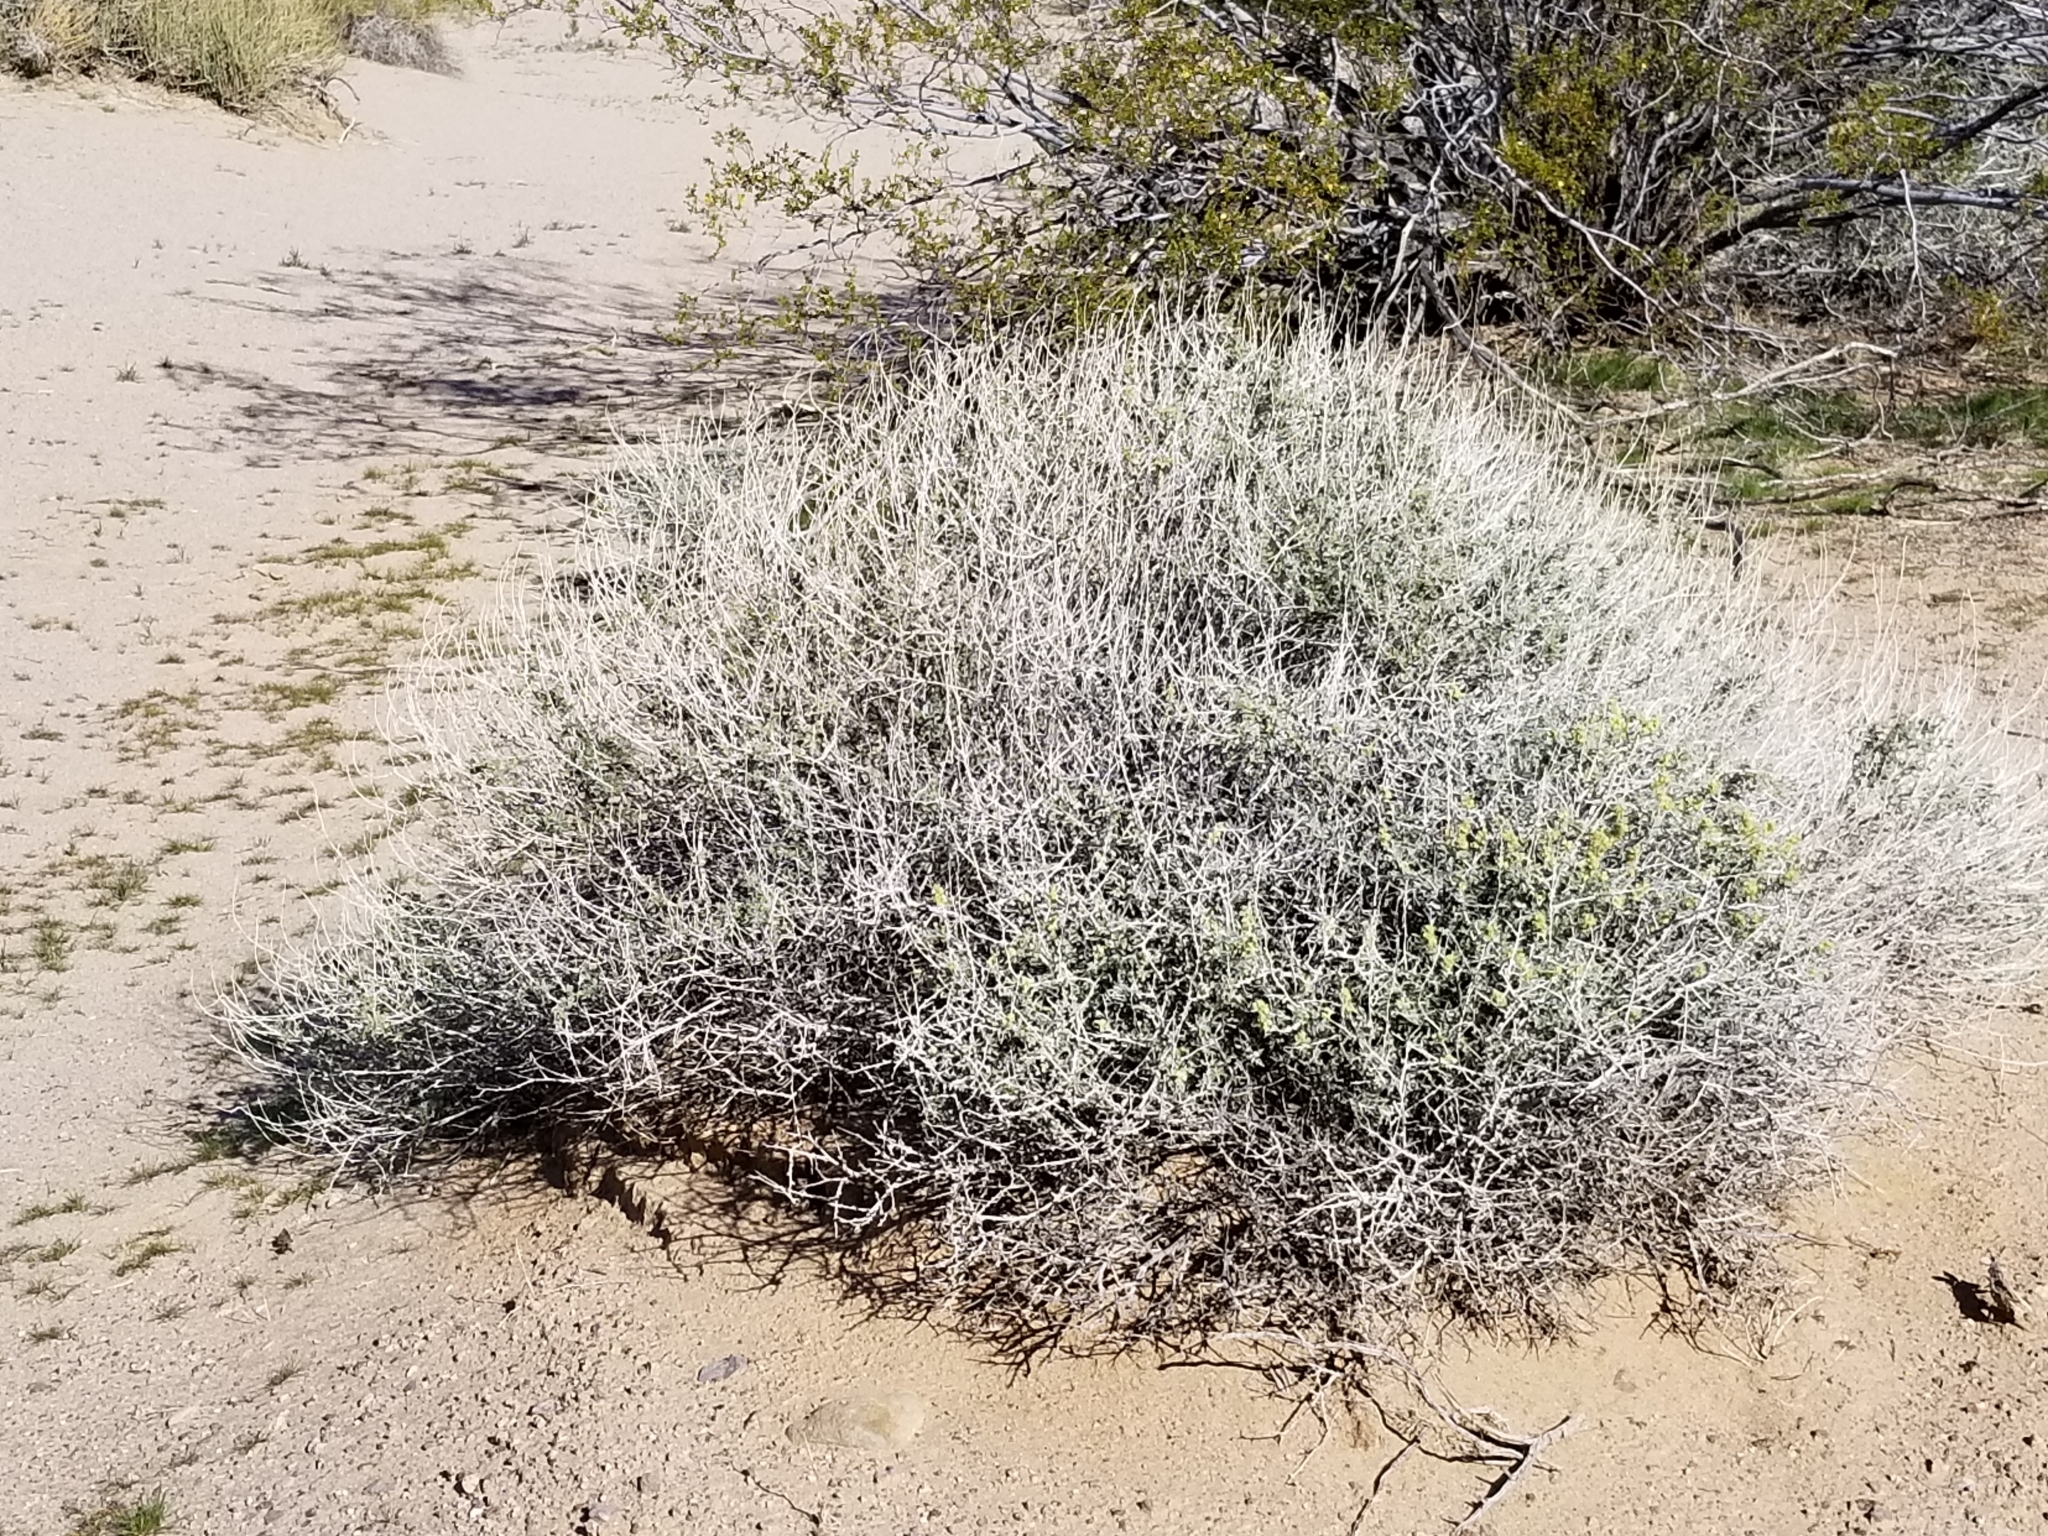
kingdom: Plantae
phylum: Tracheophyta
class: Magnoliopsida
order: Asterales
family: Asteraceae
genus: Ambrosia
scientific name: Ambrosia dumosa
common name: Bur-sage
